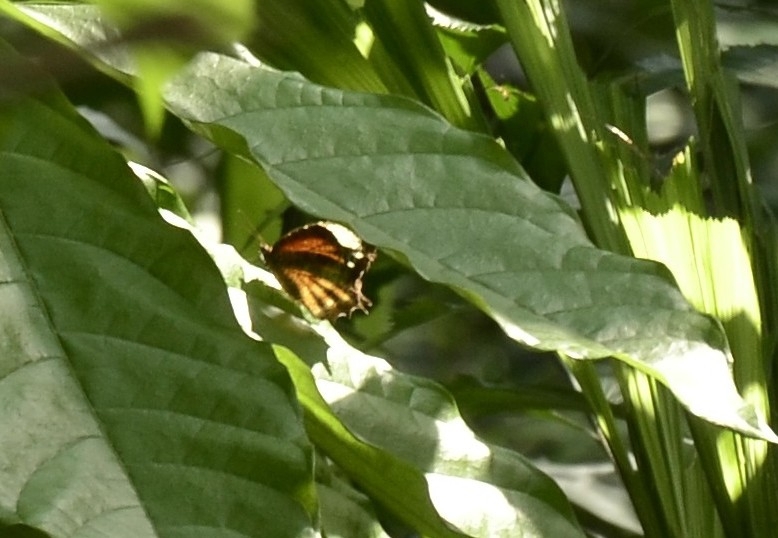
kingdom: Animalia
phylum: Arthropoda
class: Insecta
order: Lepidoptera
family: Nymphalidae
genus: Elymnias
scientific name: Elymnias caudata
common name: Tailed palmfly
